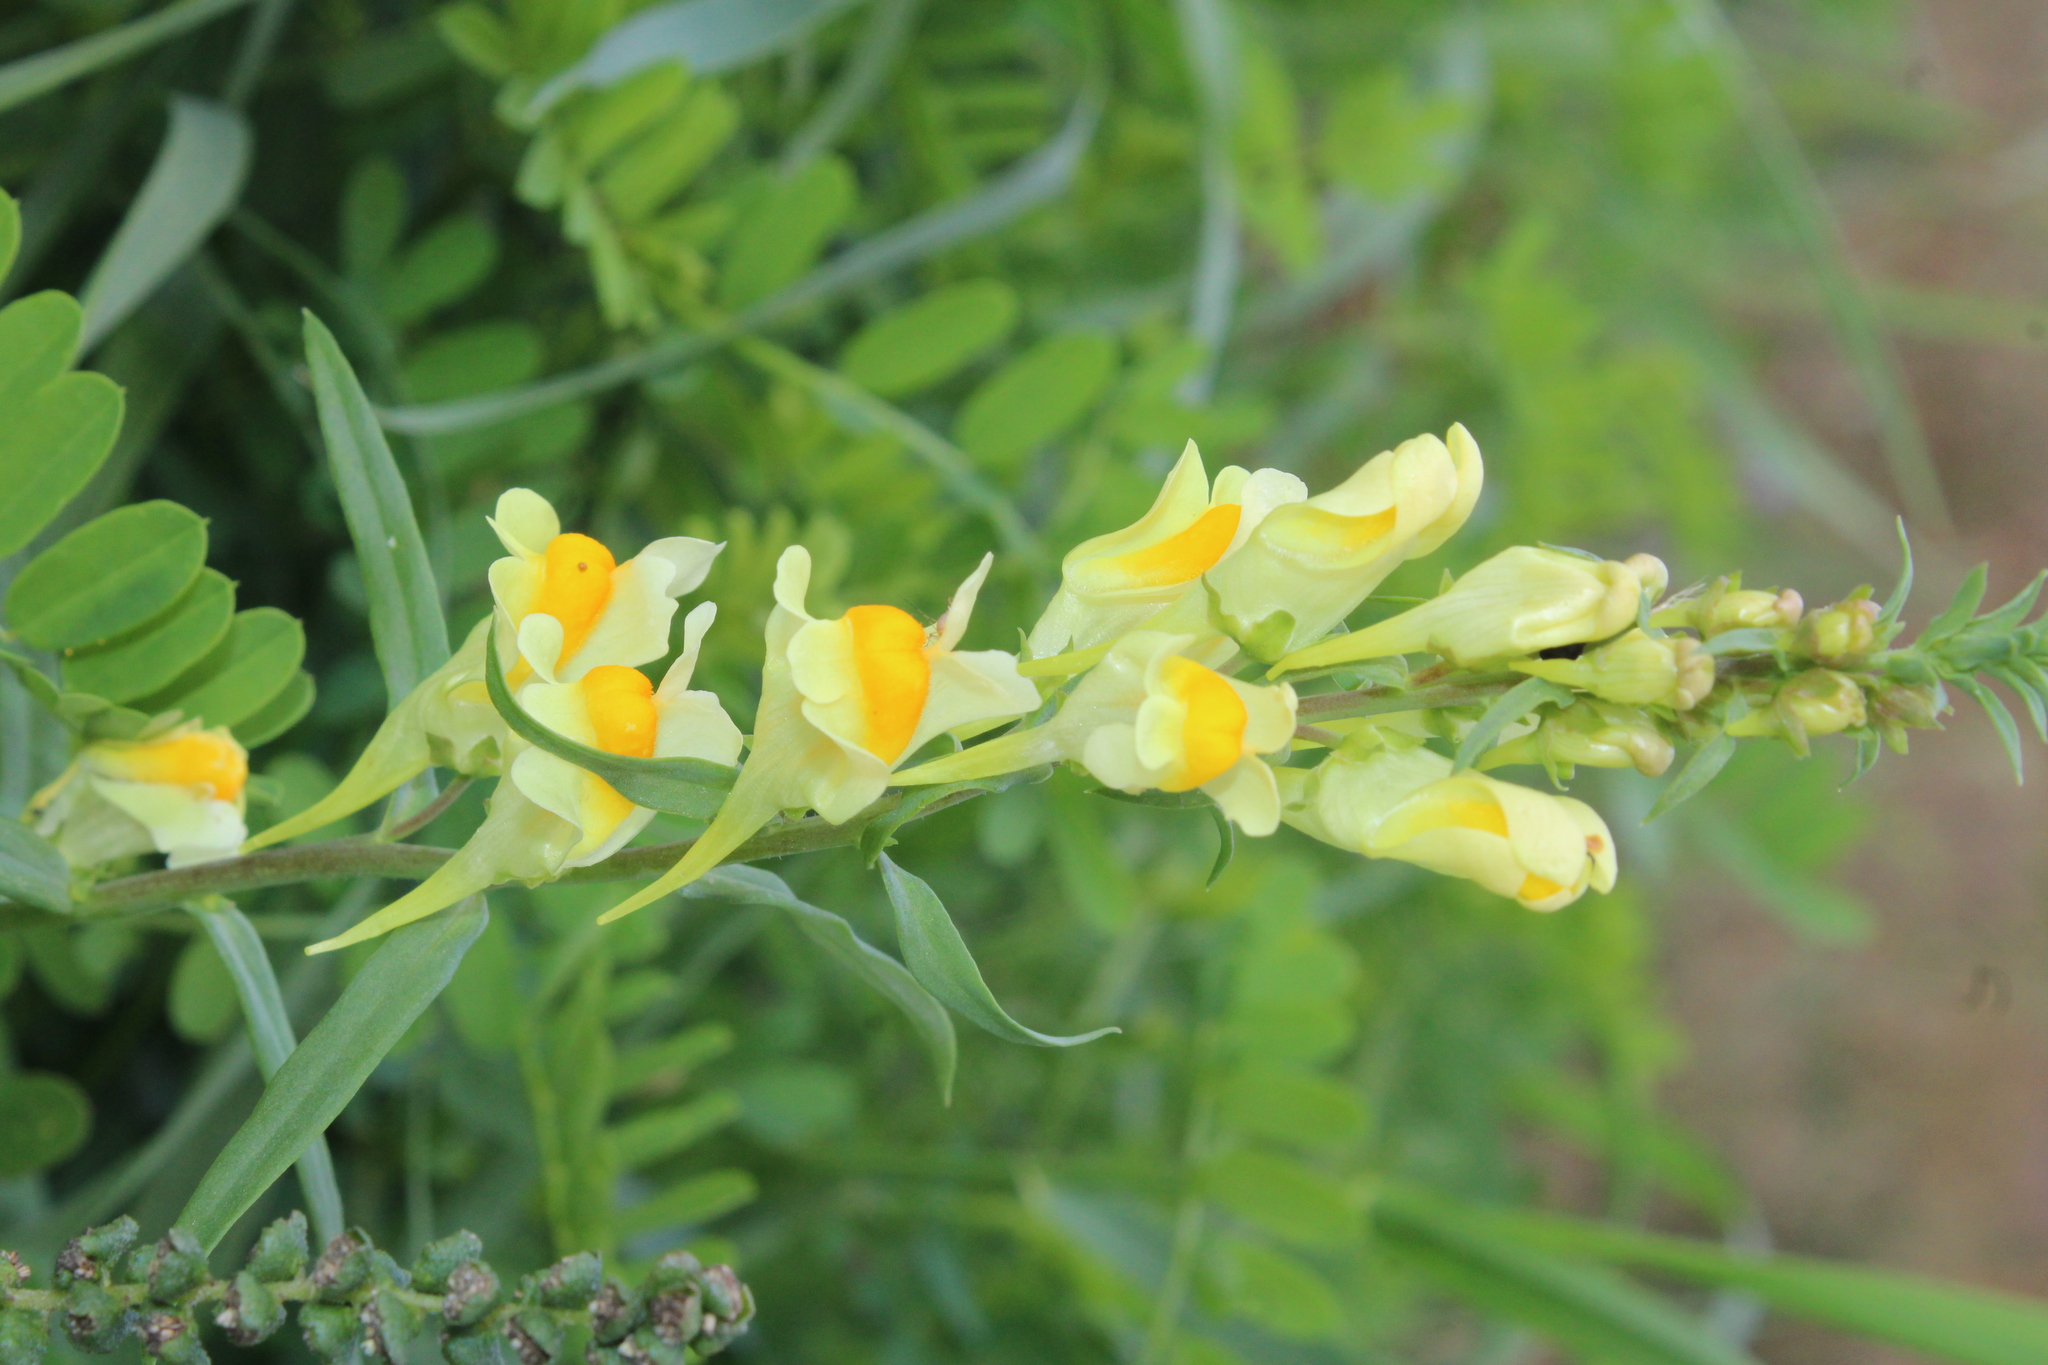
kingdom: Plantae
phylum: Tracheophyta
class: Magnoliopsida
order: Lamiales
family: Plantaginaceae
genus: Linaria
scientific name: Linaria vulgaris
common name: Butter and eggs
